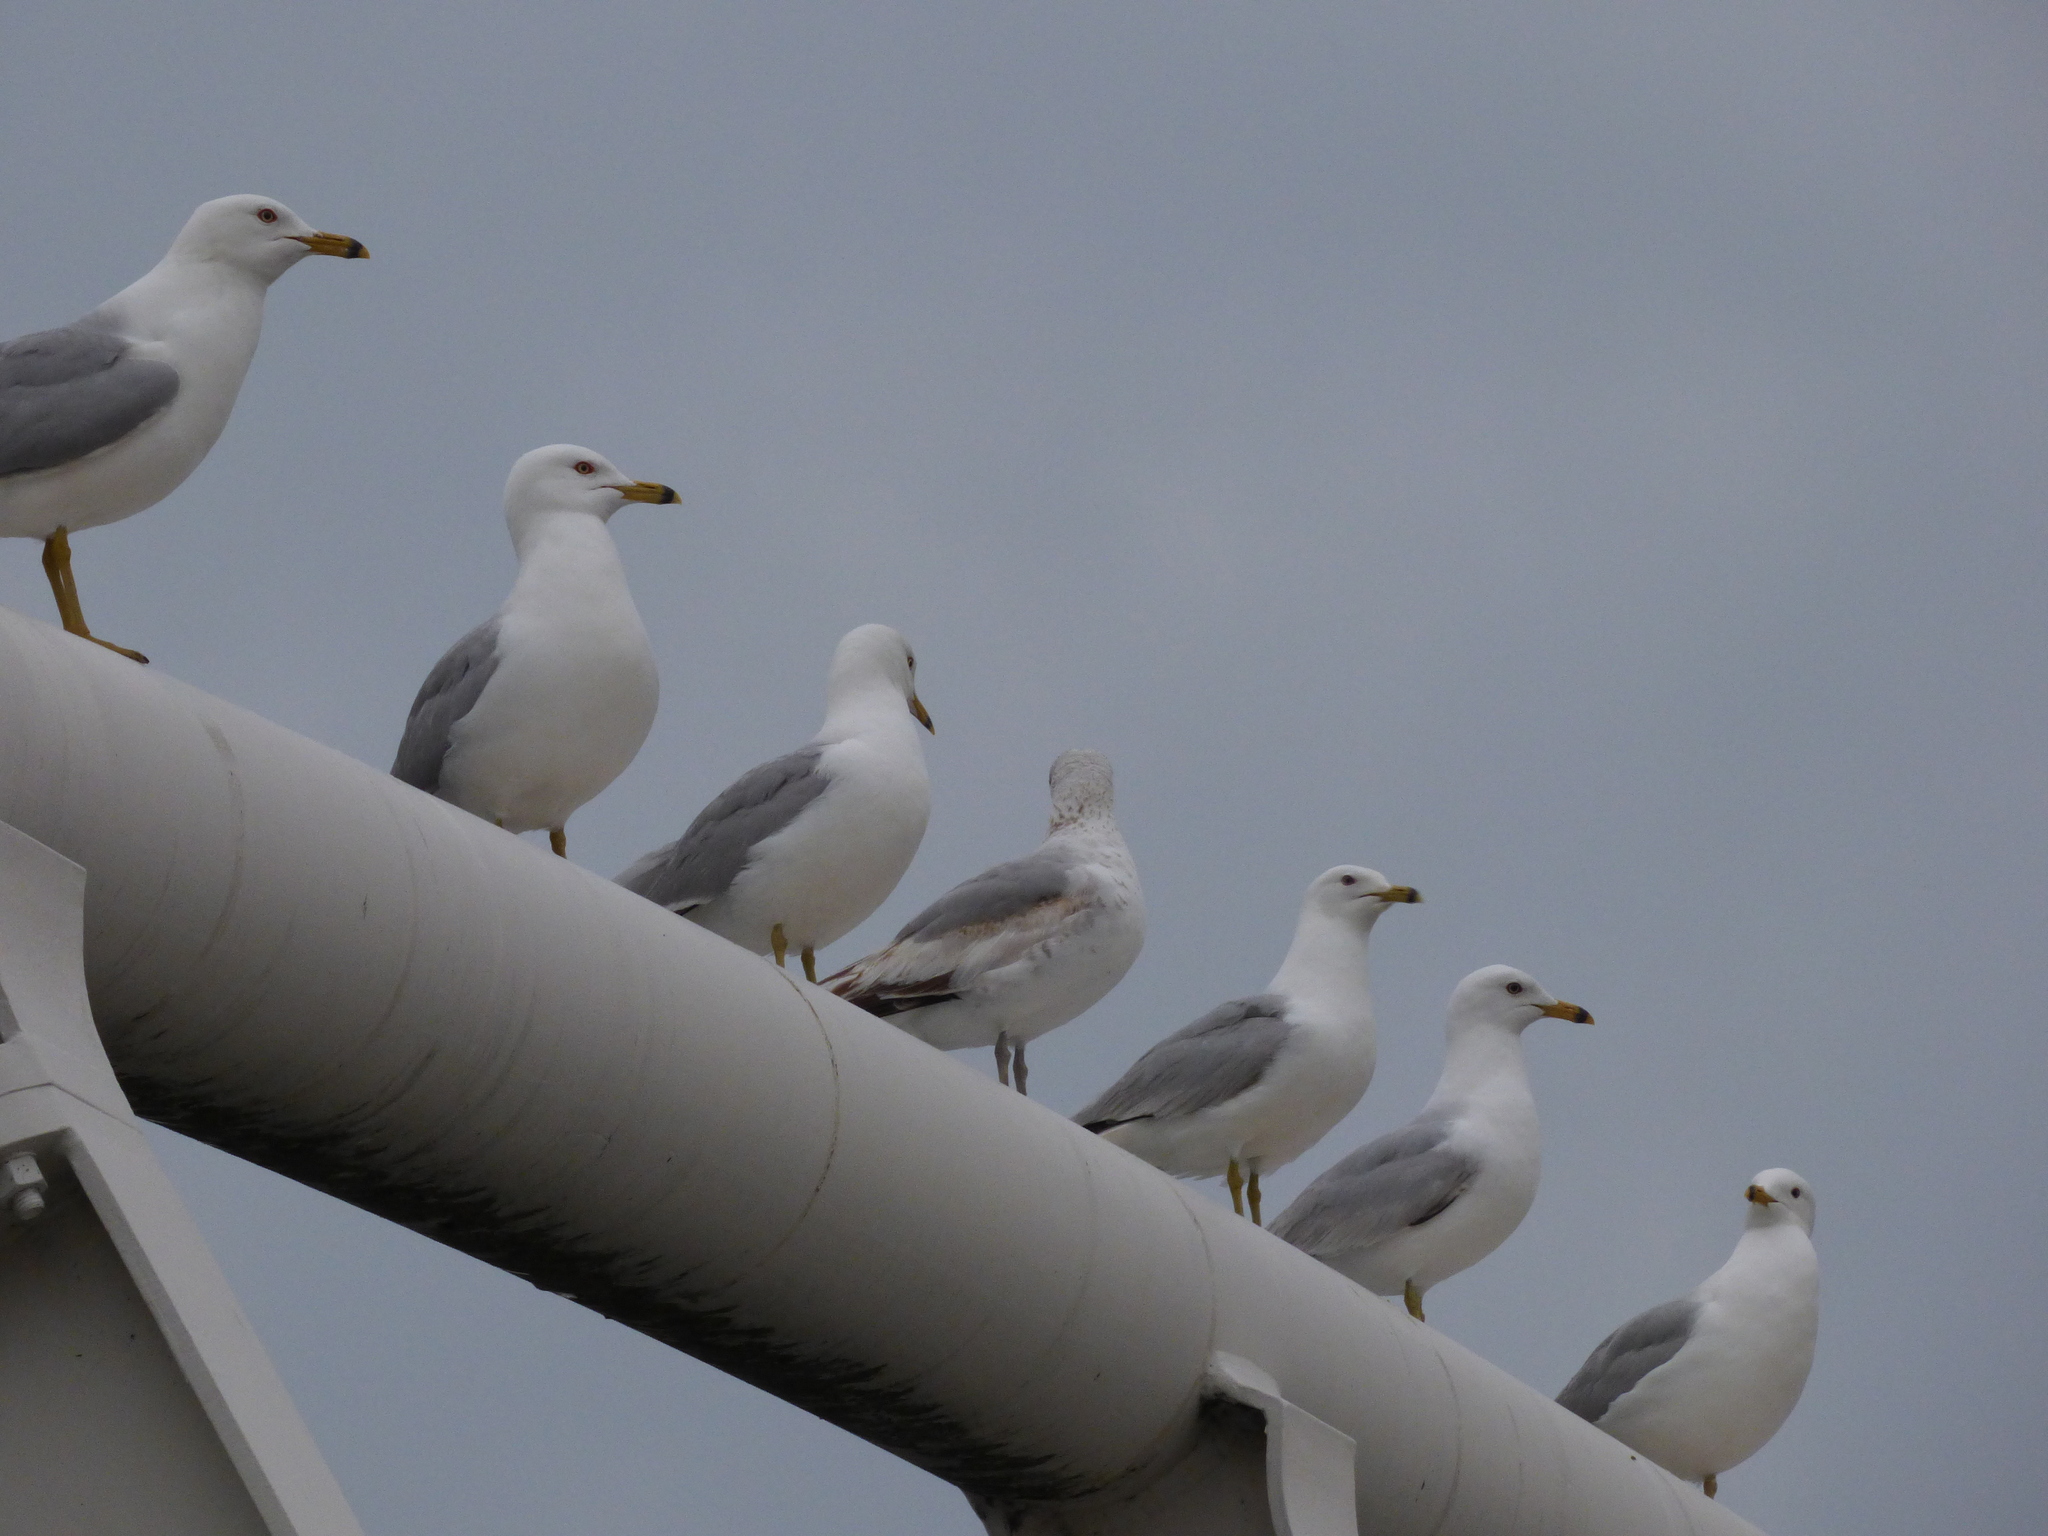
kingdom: Animalia
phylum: Chordata
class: Aves
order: Charadriiformes
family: Laridae
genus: Larus
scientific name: Larus delawarensis
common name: Ring-billed gull
